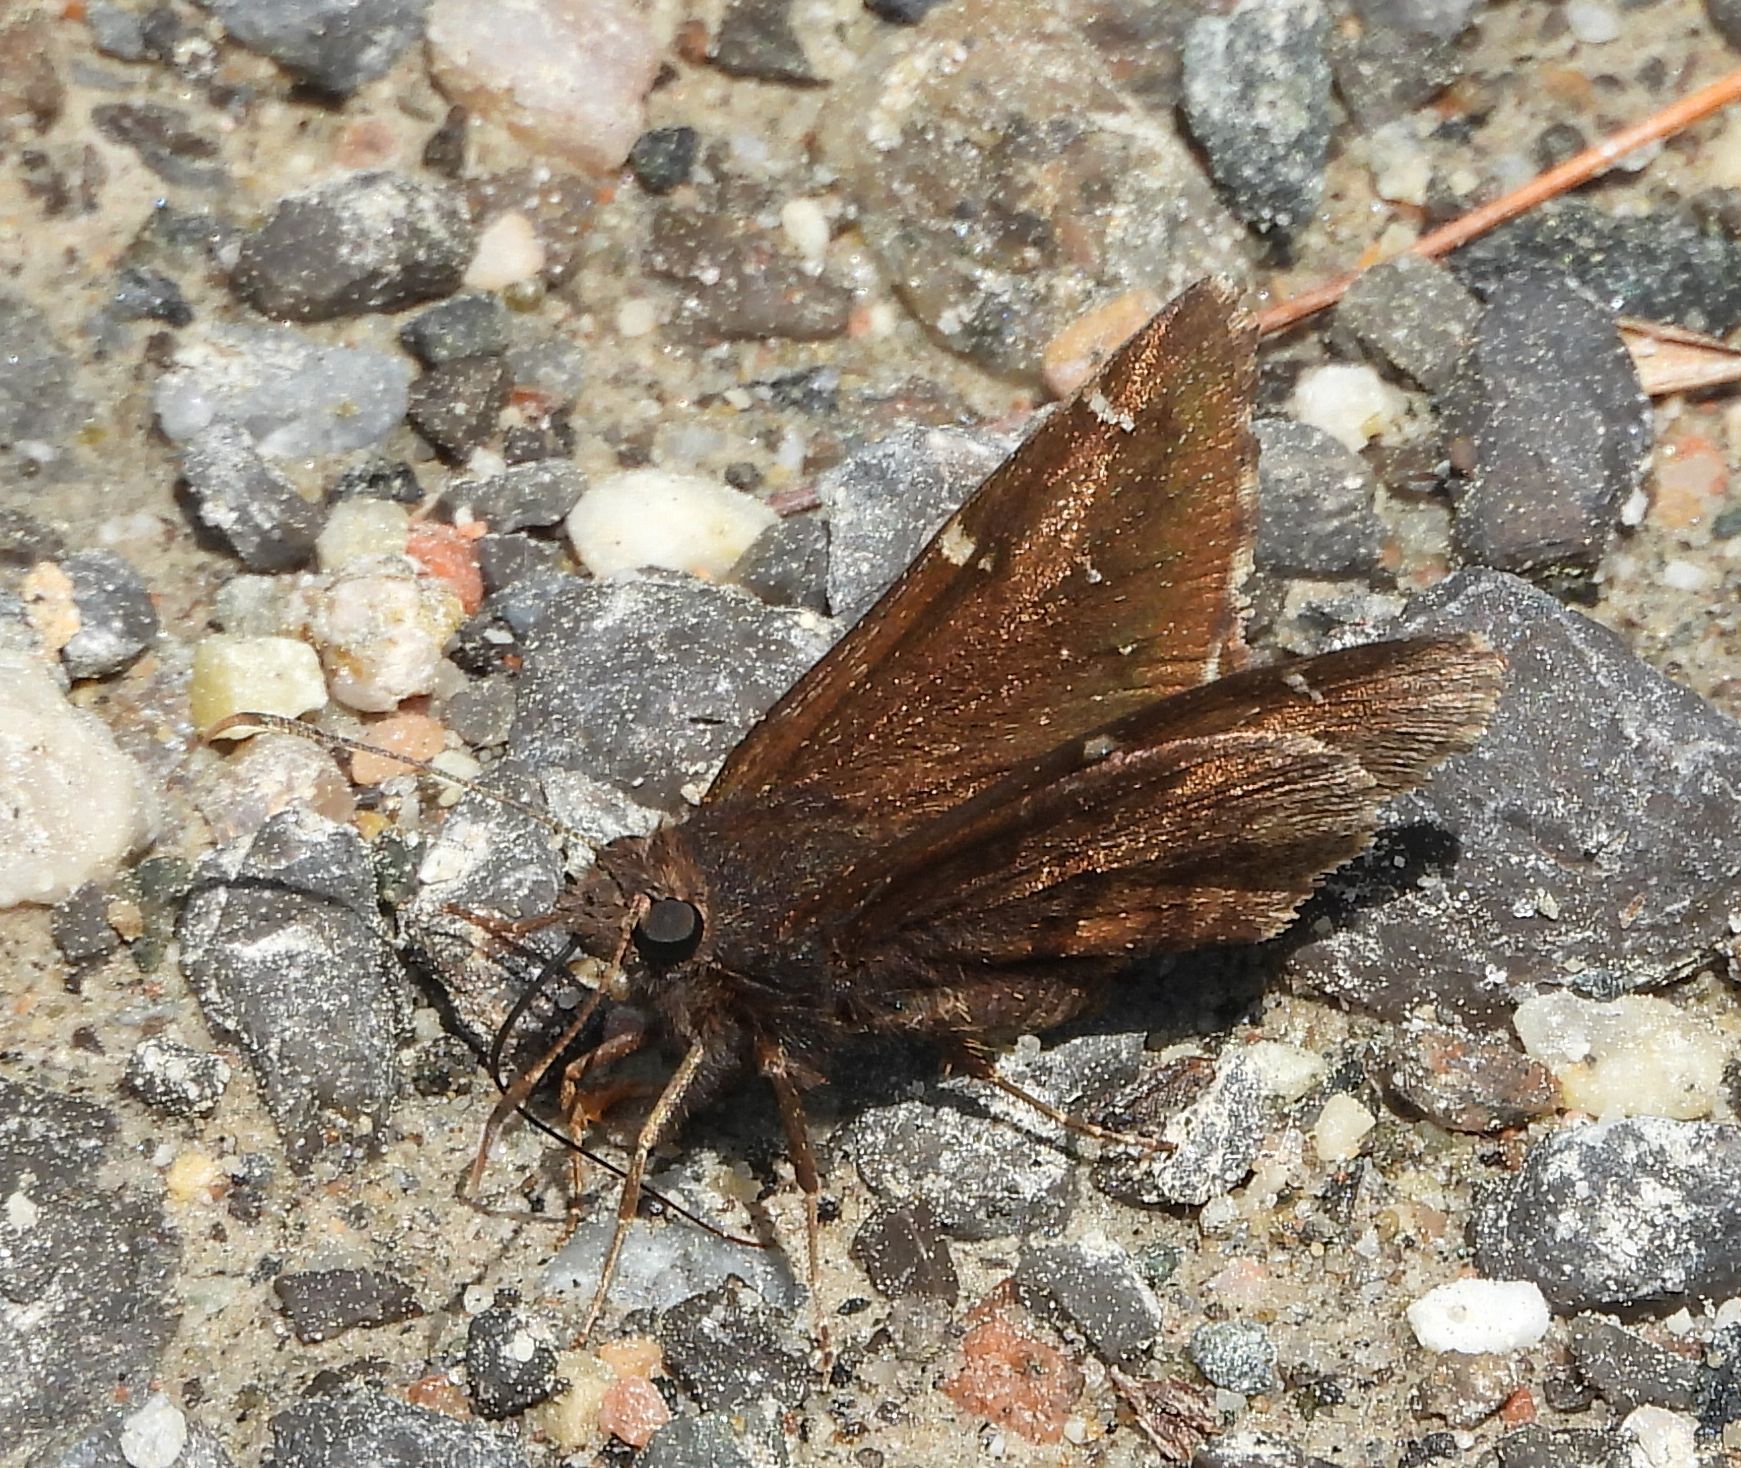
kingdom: Animalia
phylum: Arthropoda
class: Insecta
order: Lepidoptera
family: Hesperiidae
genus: Thorybes
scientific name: Thorybes pylades
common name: Northern cloudywing
